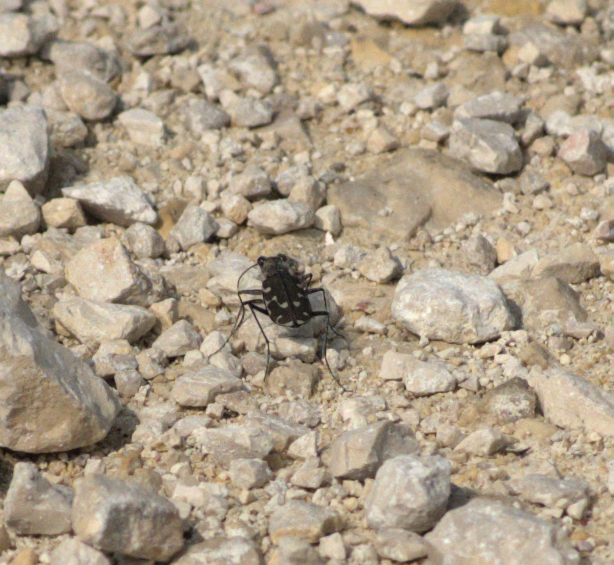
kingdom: Animalia
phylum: Arthropoda
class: Insecta
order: Coleoptera
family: Carabidae
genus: Cicindela
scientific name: Cicindela duodecimguttata
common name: Twelve-spotted tiger beetle
